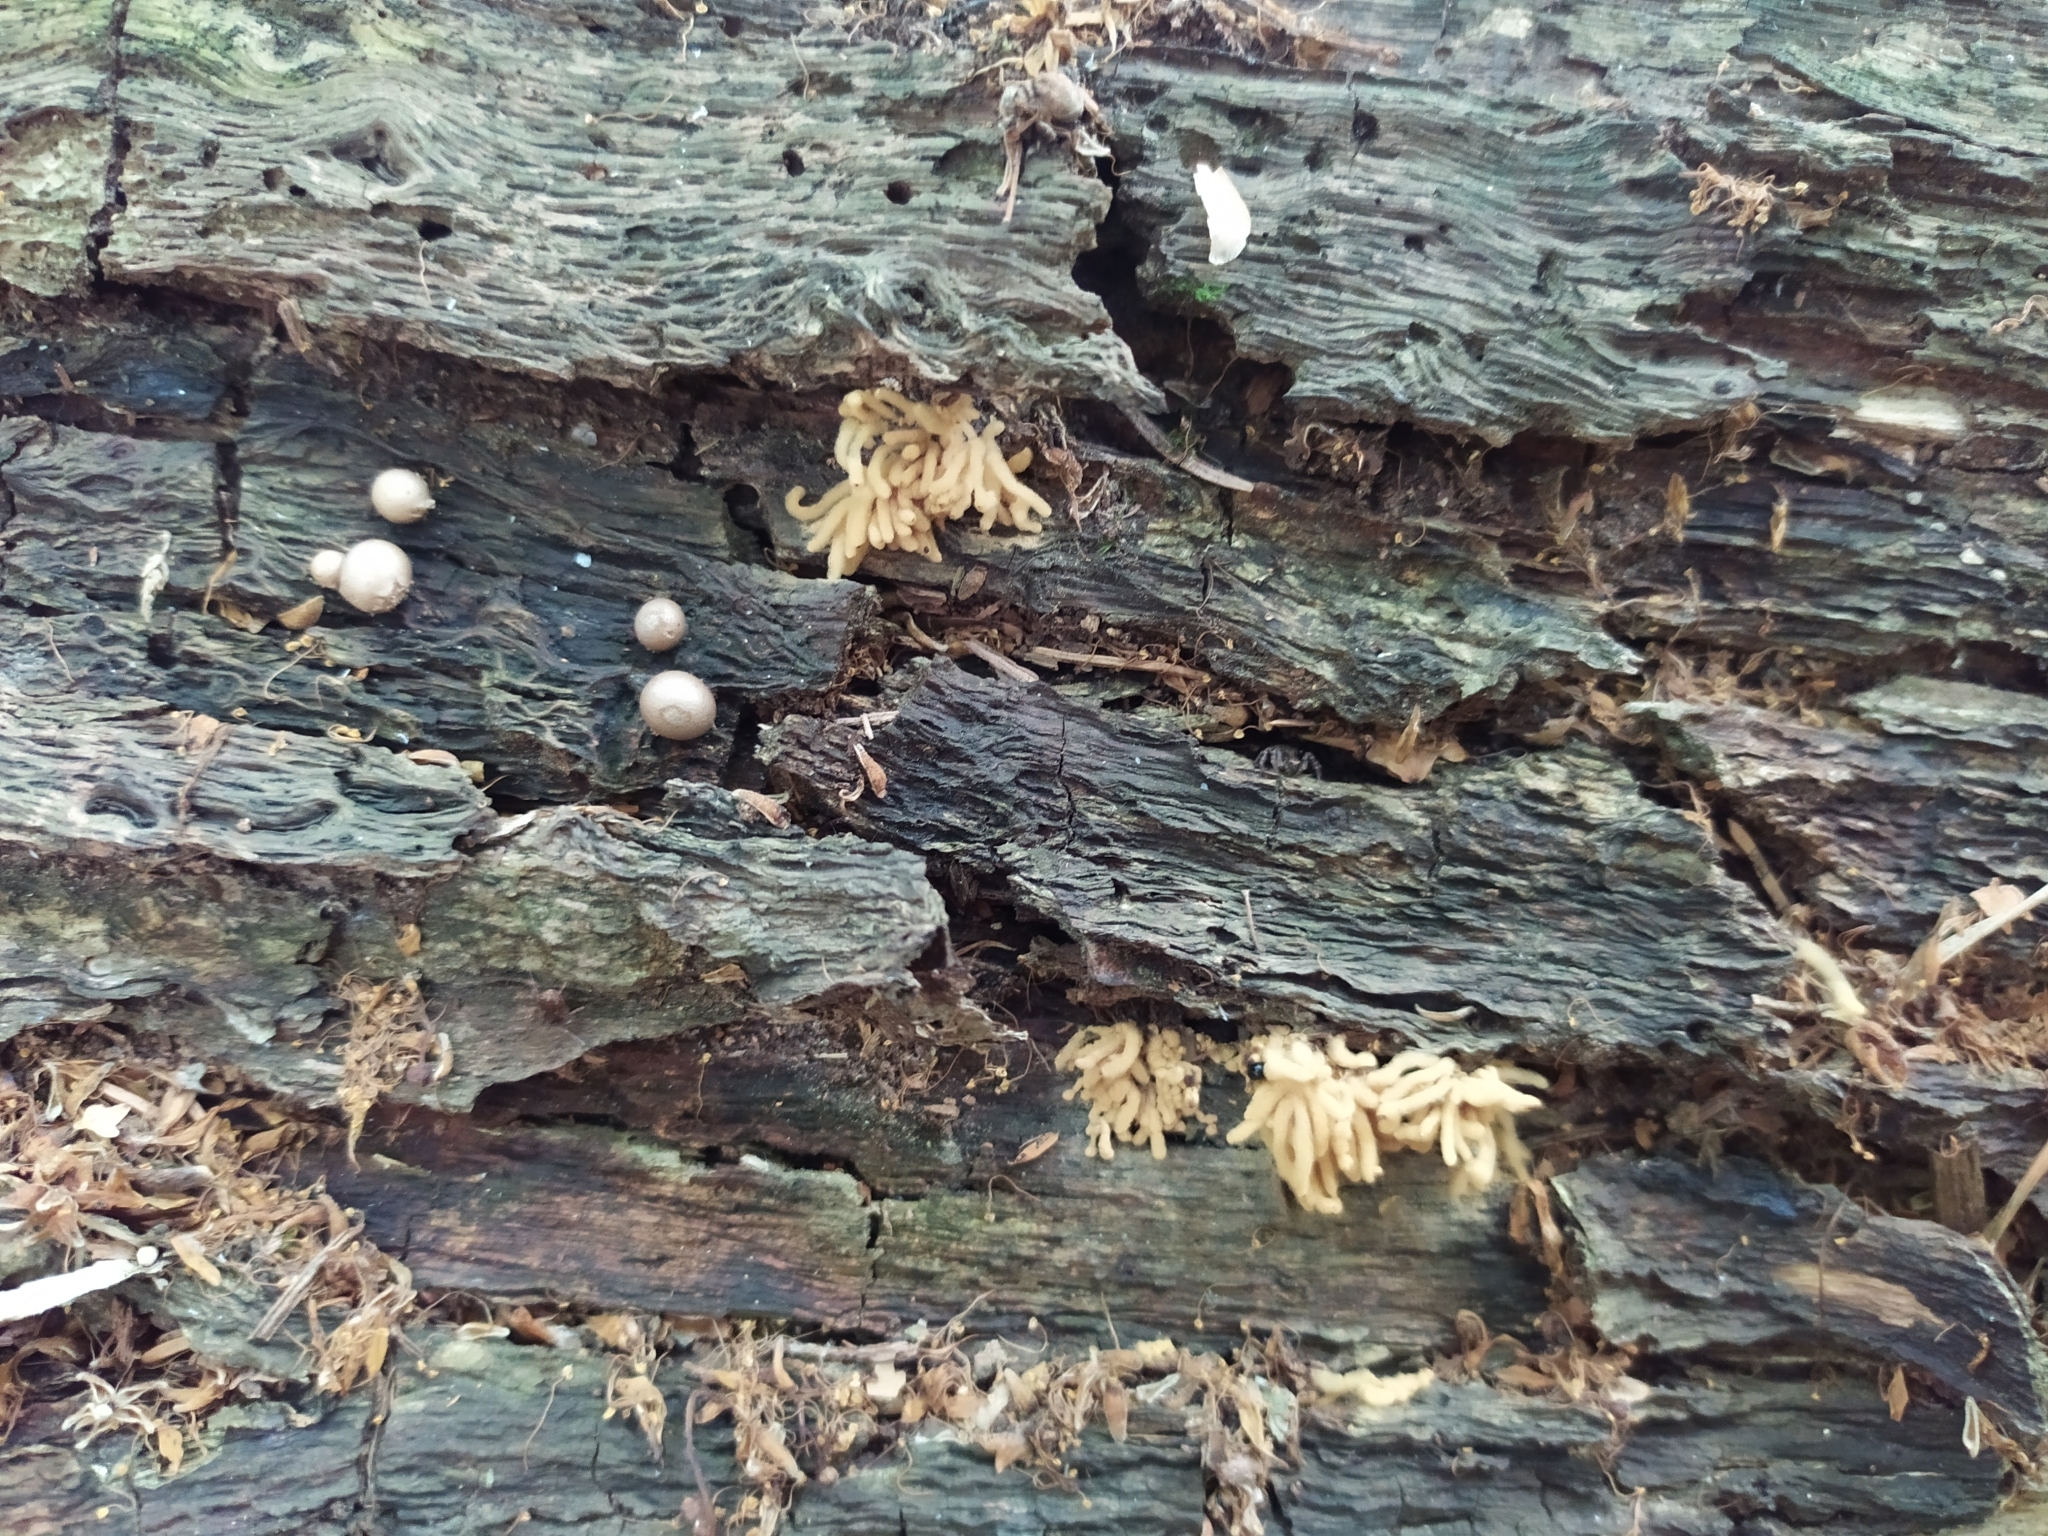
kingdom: Protozoa
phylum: Mycetozoa
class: Myxomycetes
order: Trichiales
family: Arcyriaceae
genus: Arcyria
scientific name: Arcyria obvelata
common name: Yellow carnival candy slime
